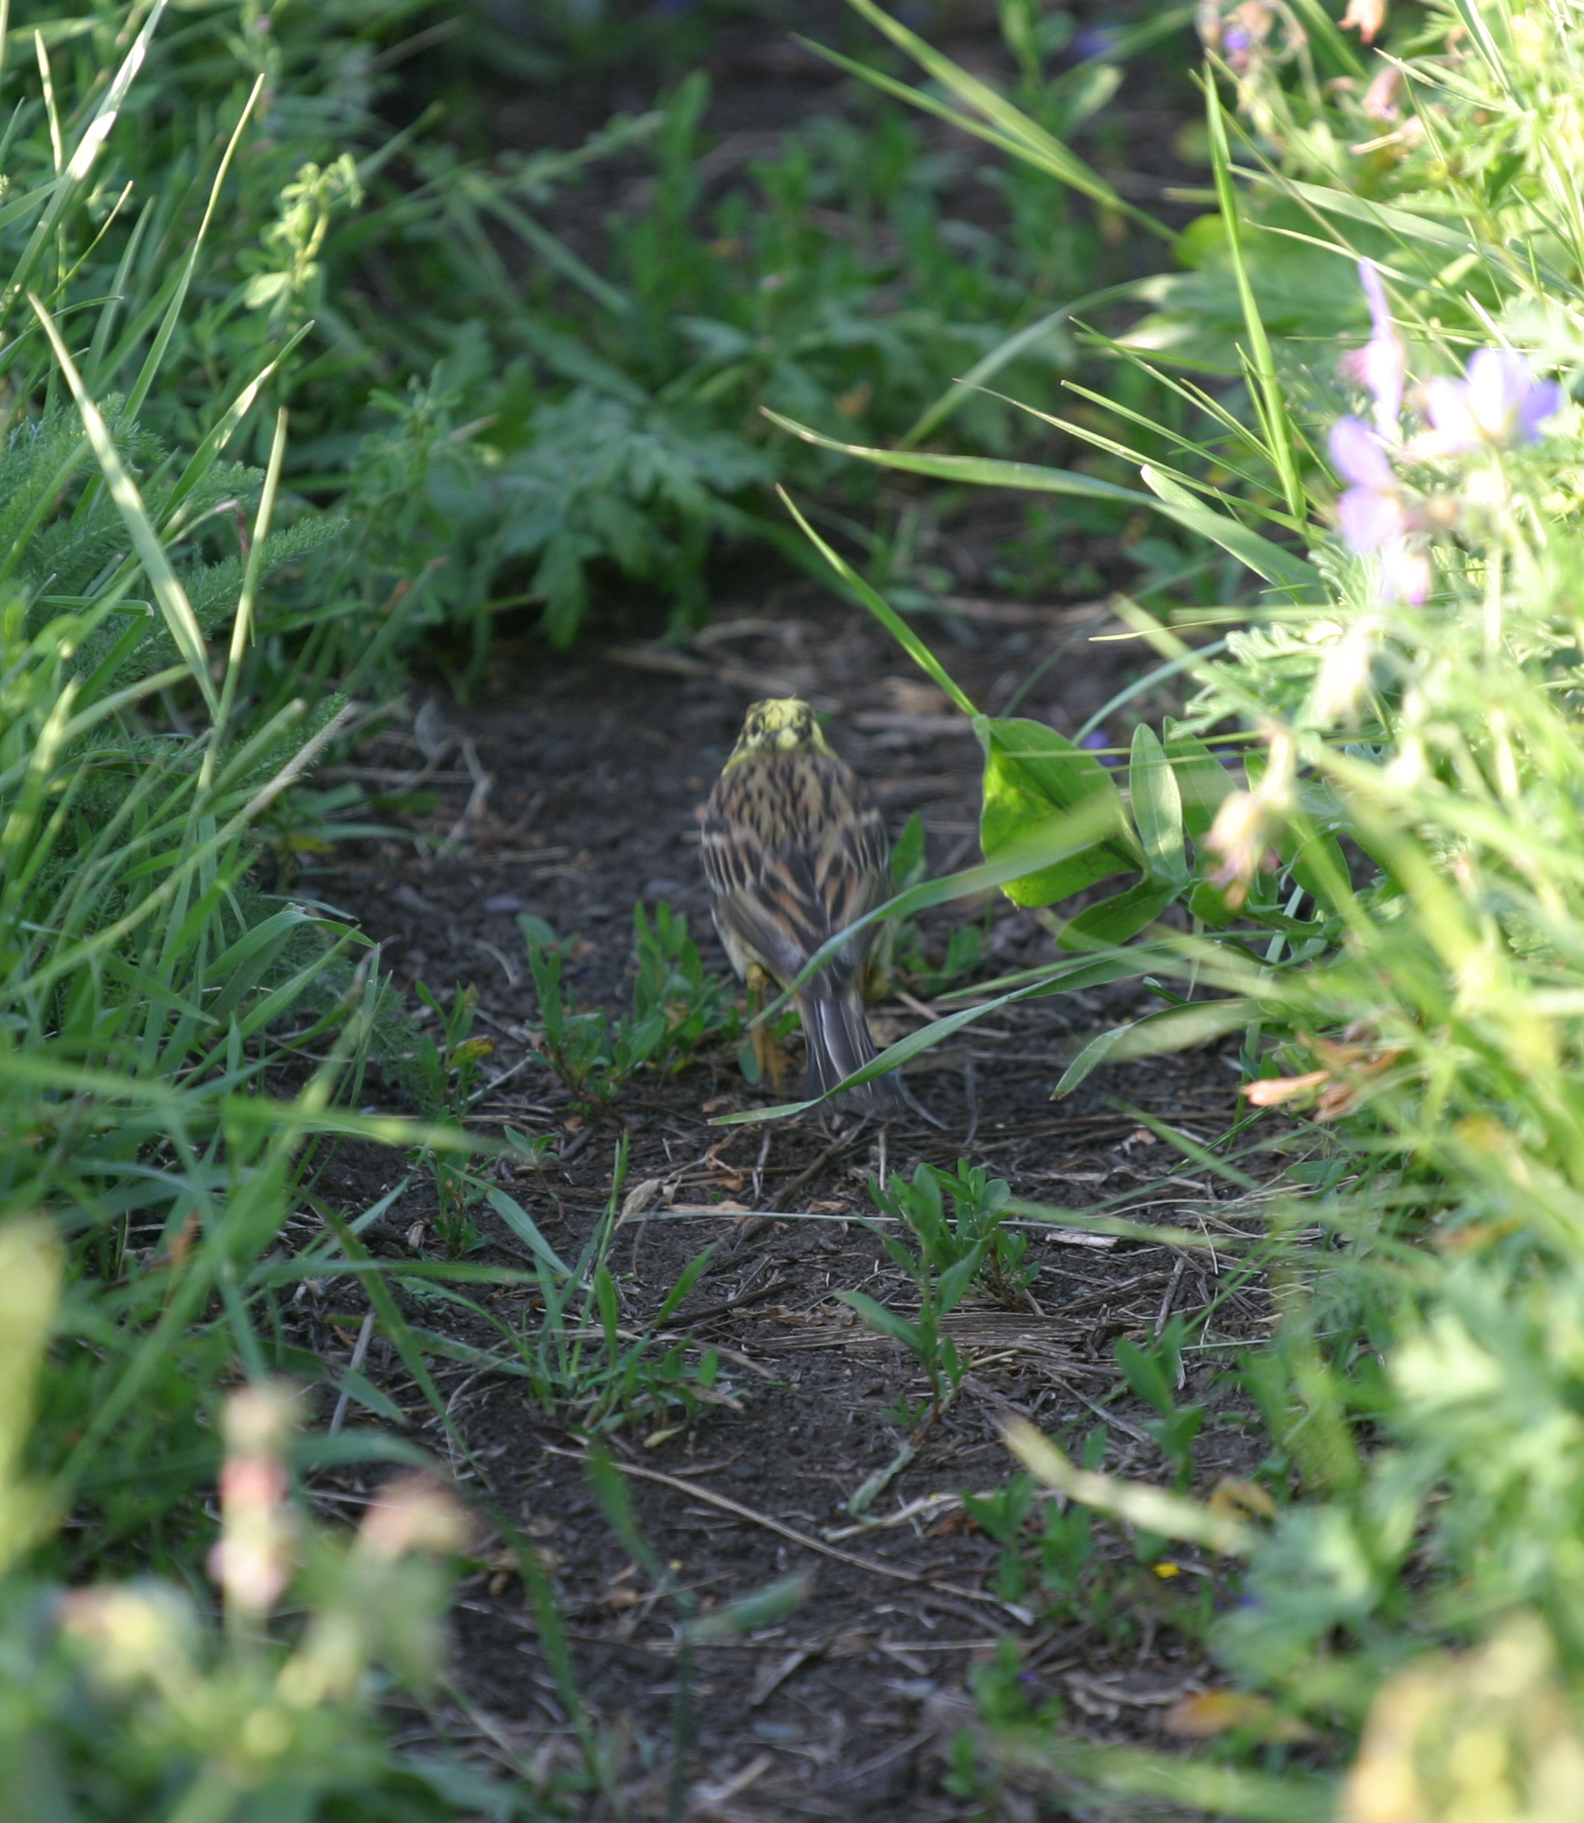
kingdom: Animalia
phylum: Chordata
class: Aves
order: Passeriformes
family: Emberizidae
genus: Emberiza
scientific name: Emberiza
